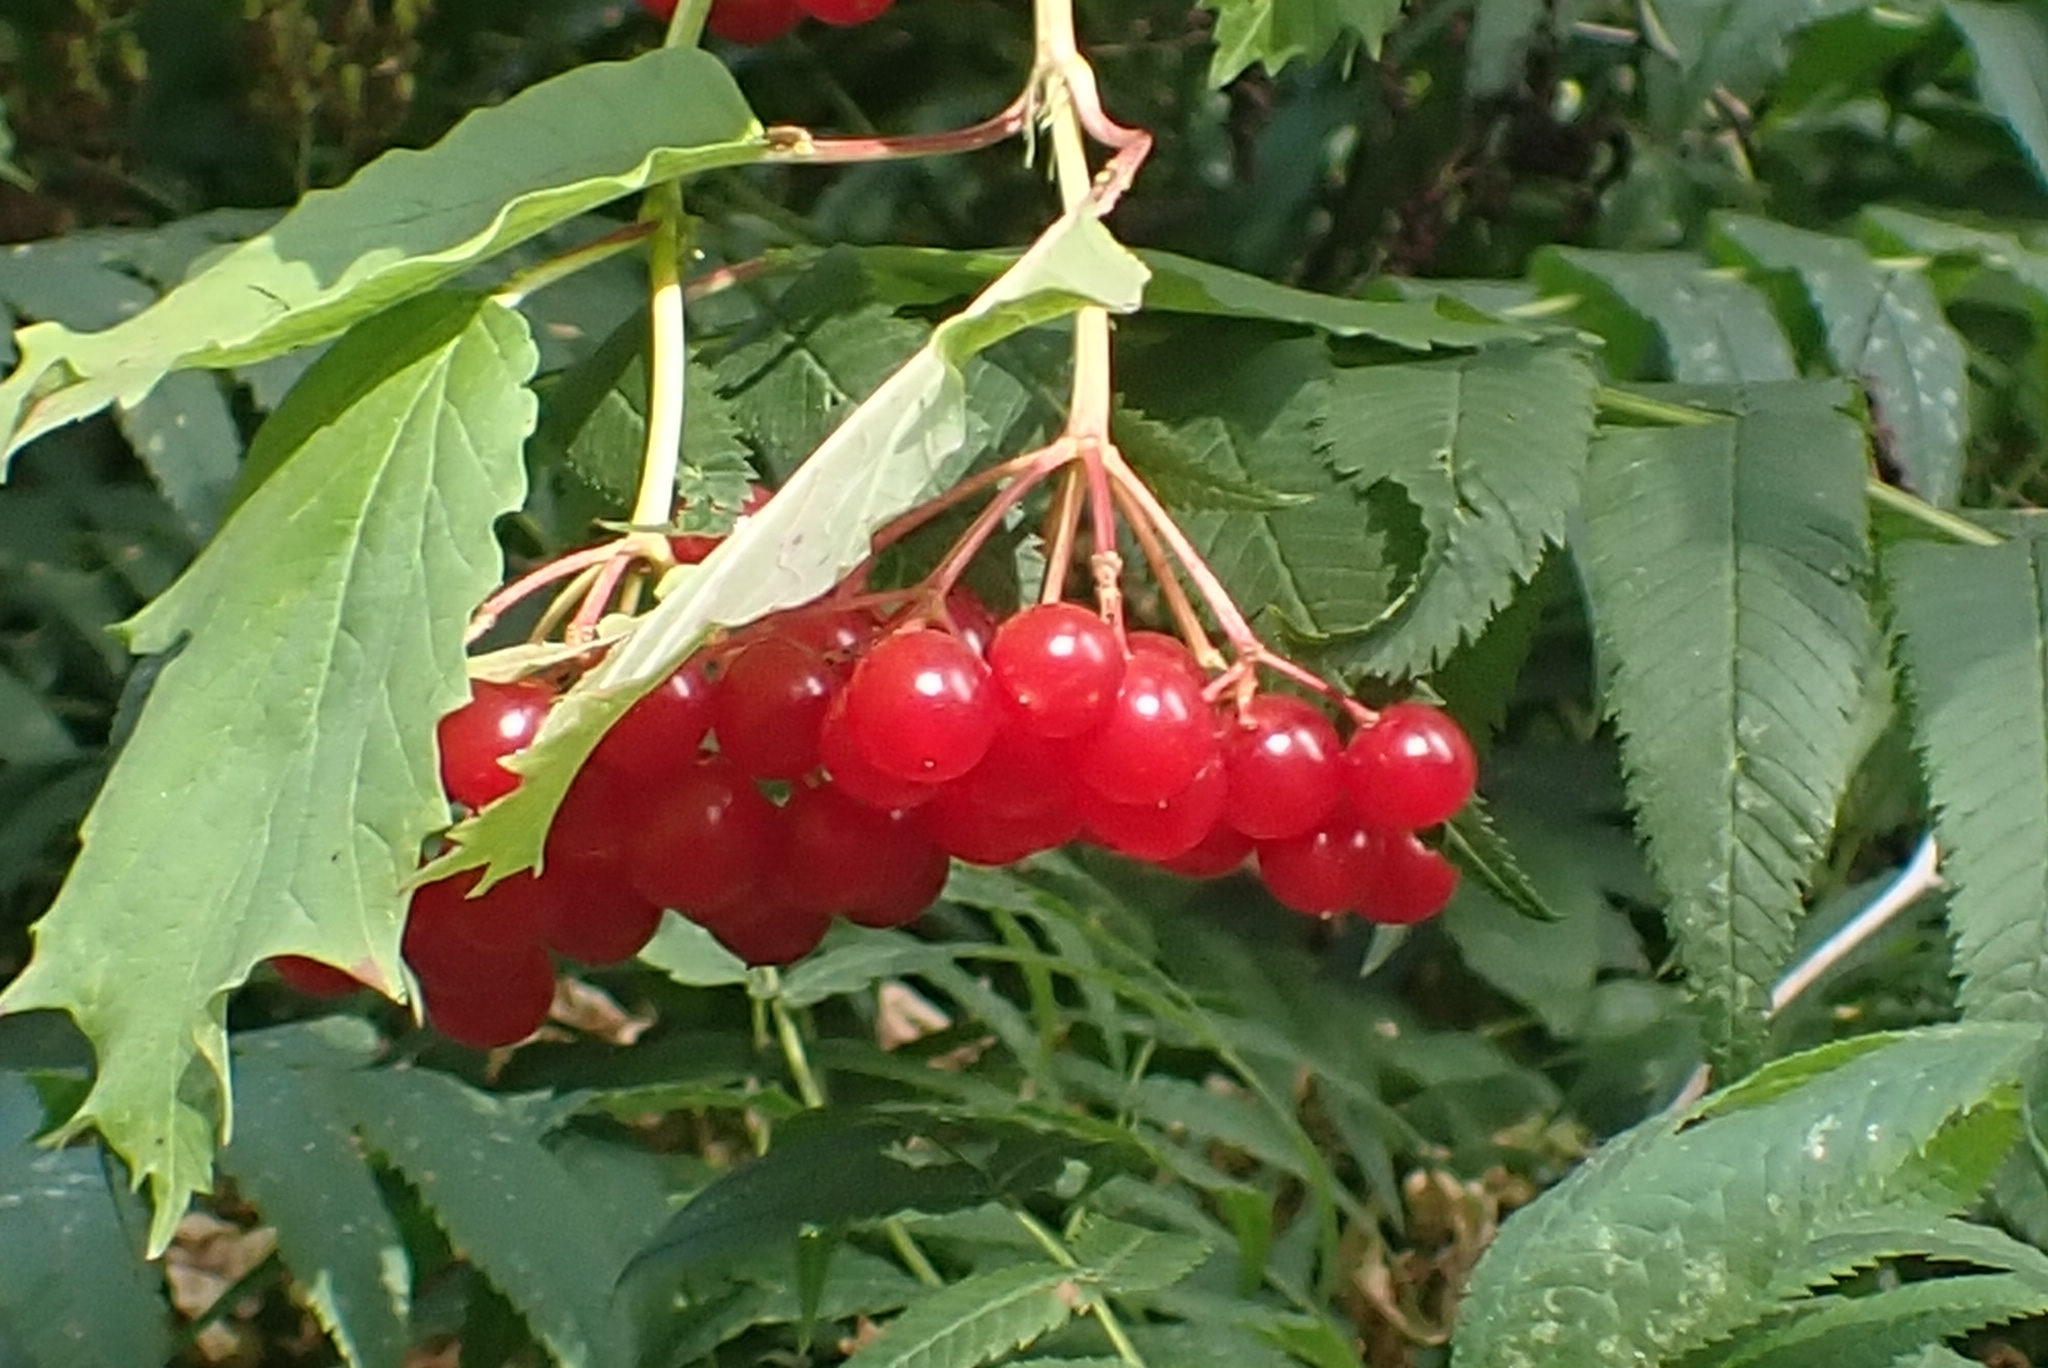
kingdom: Plantae
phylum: Tracheophyta
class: Magnoliopsida
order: Dipsacales
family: Viburnaceae
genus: Viburnum
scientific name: Viburnum opulus
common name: Guelder-rose
